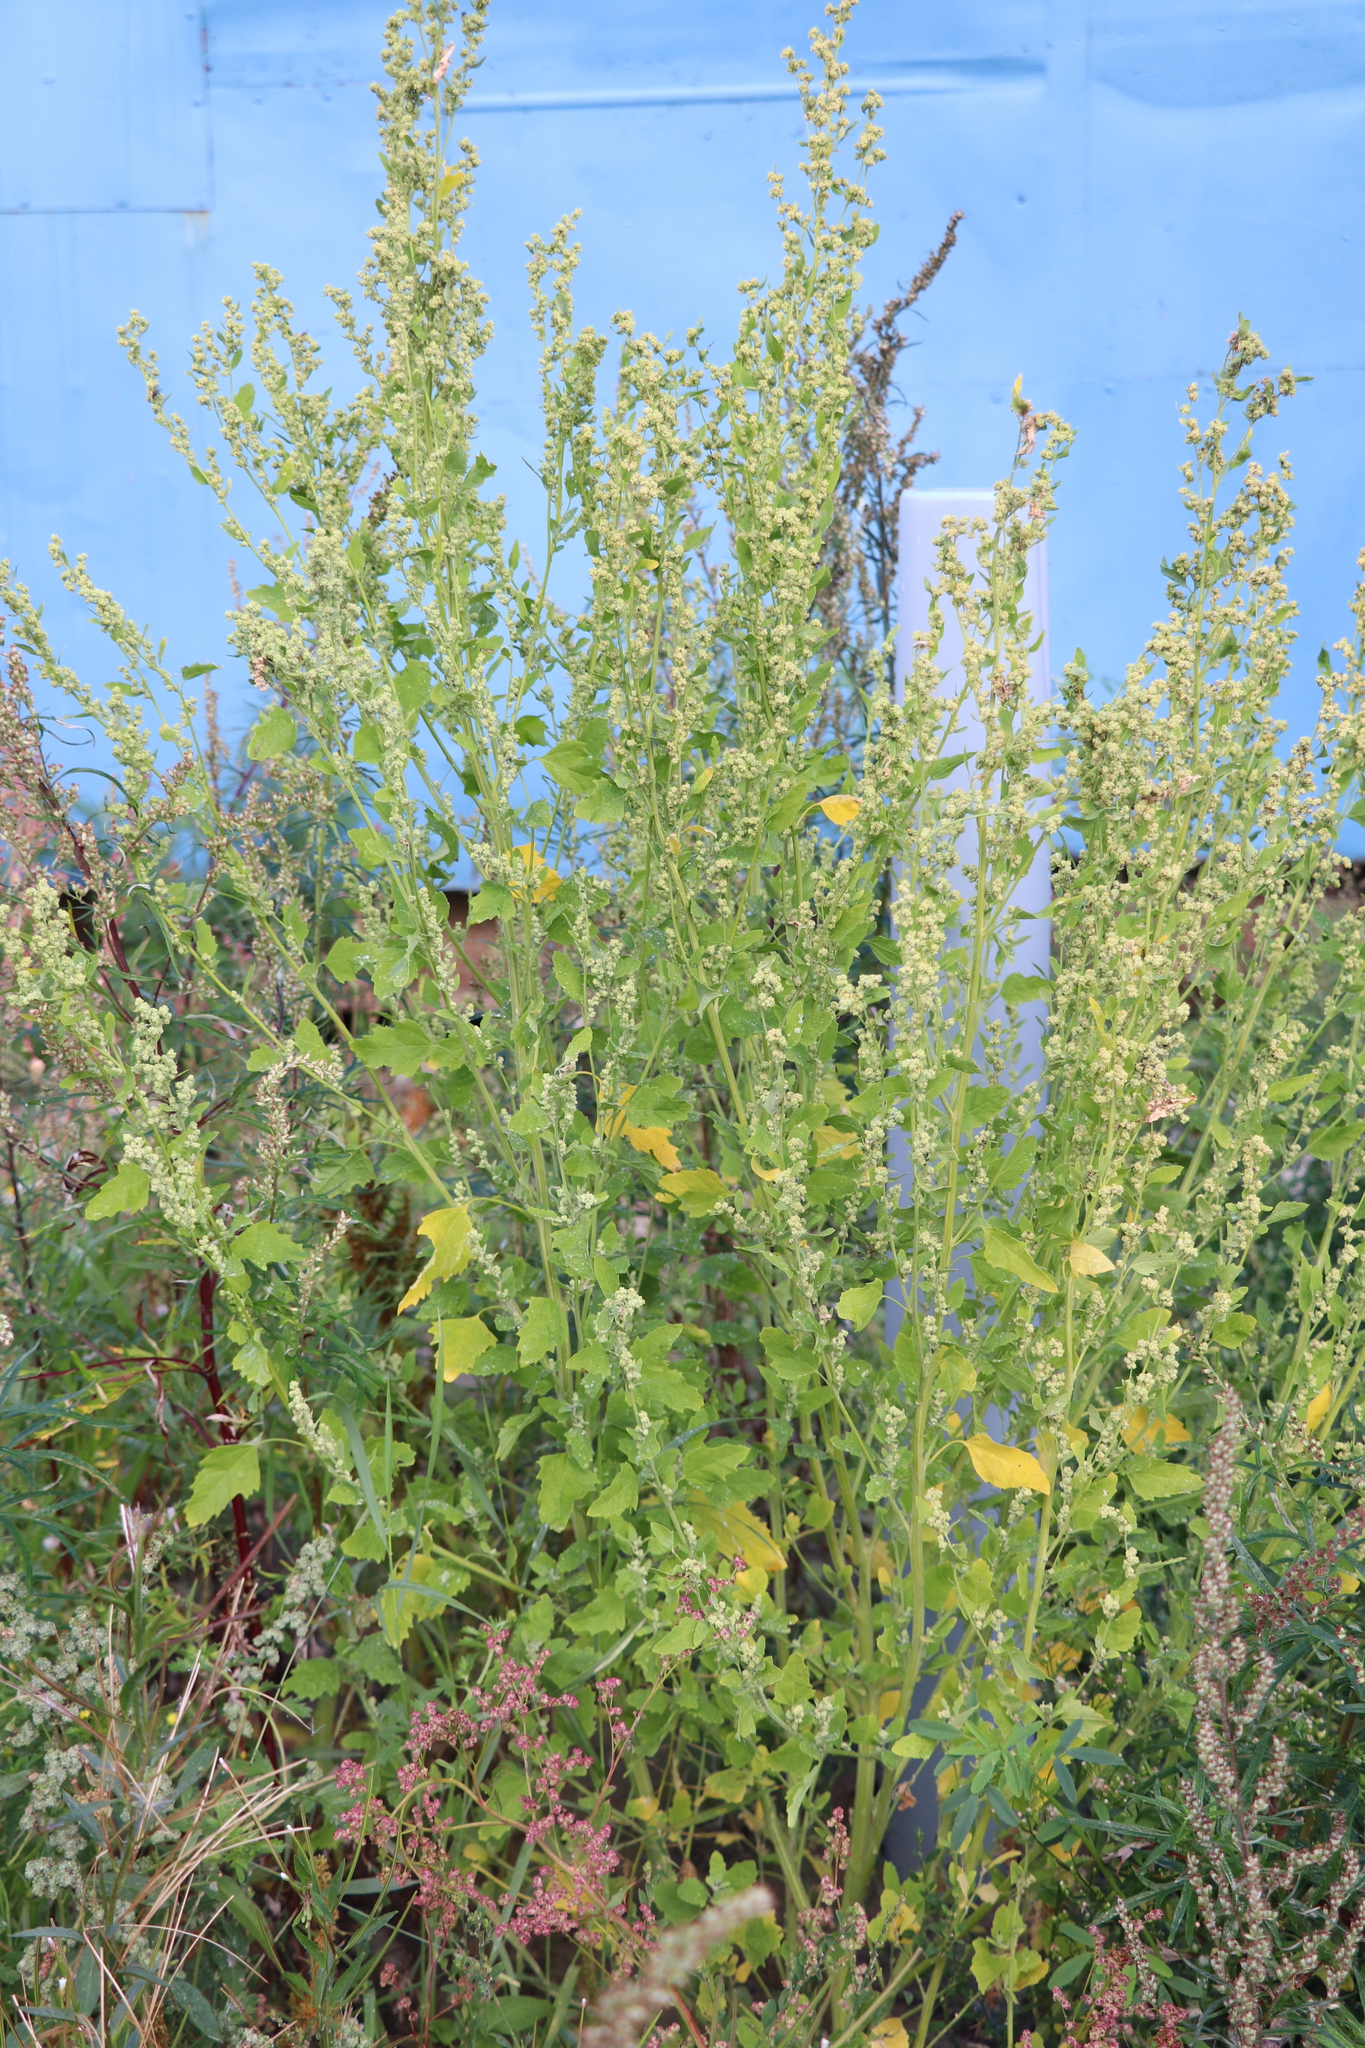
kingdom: Plantae
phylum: Tracheophyta
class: Magnoliopsida
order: Caryophyllales
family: Amaranthaceae
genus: Chenopodium
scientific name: Chenopodium album
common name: Fat-hen
